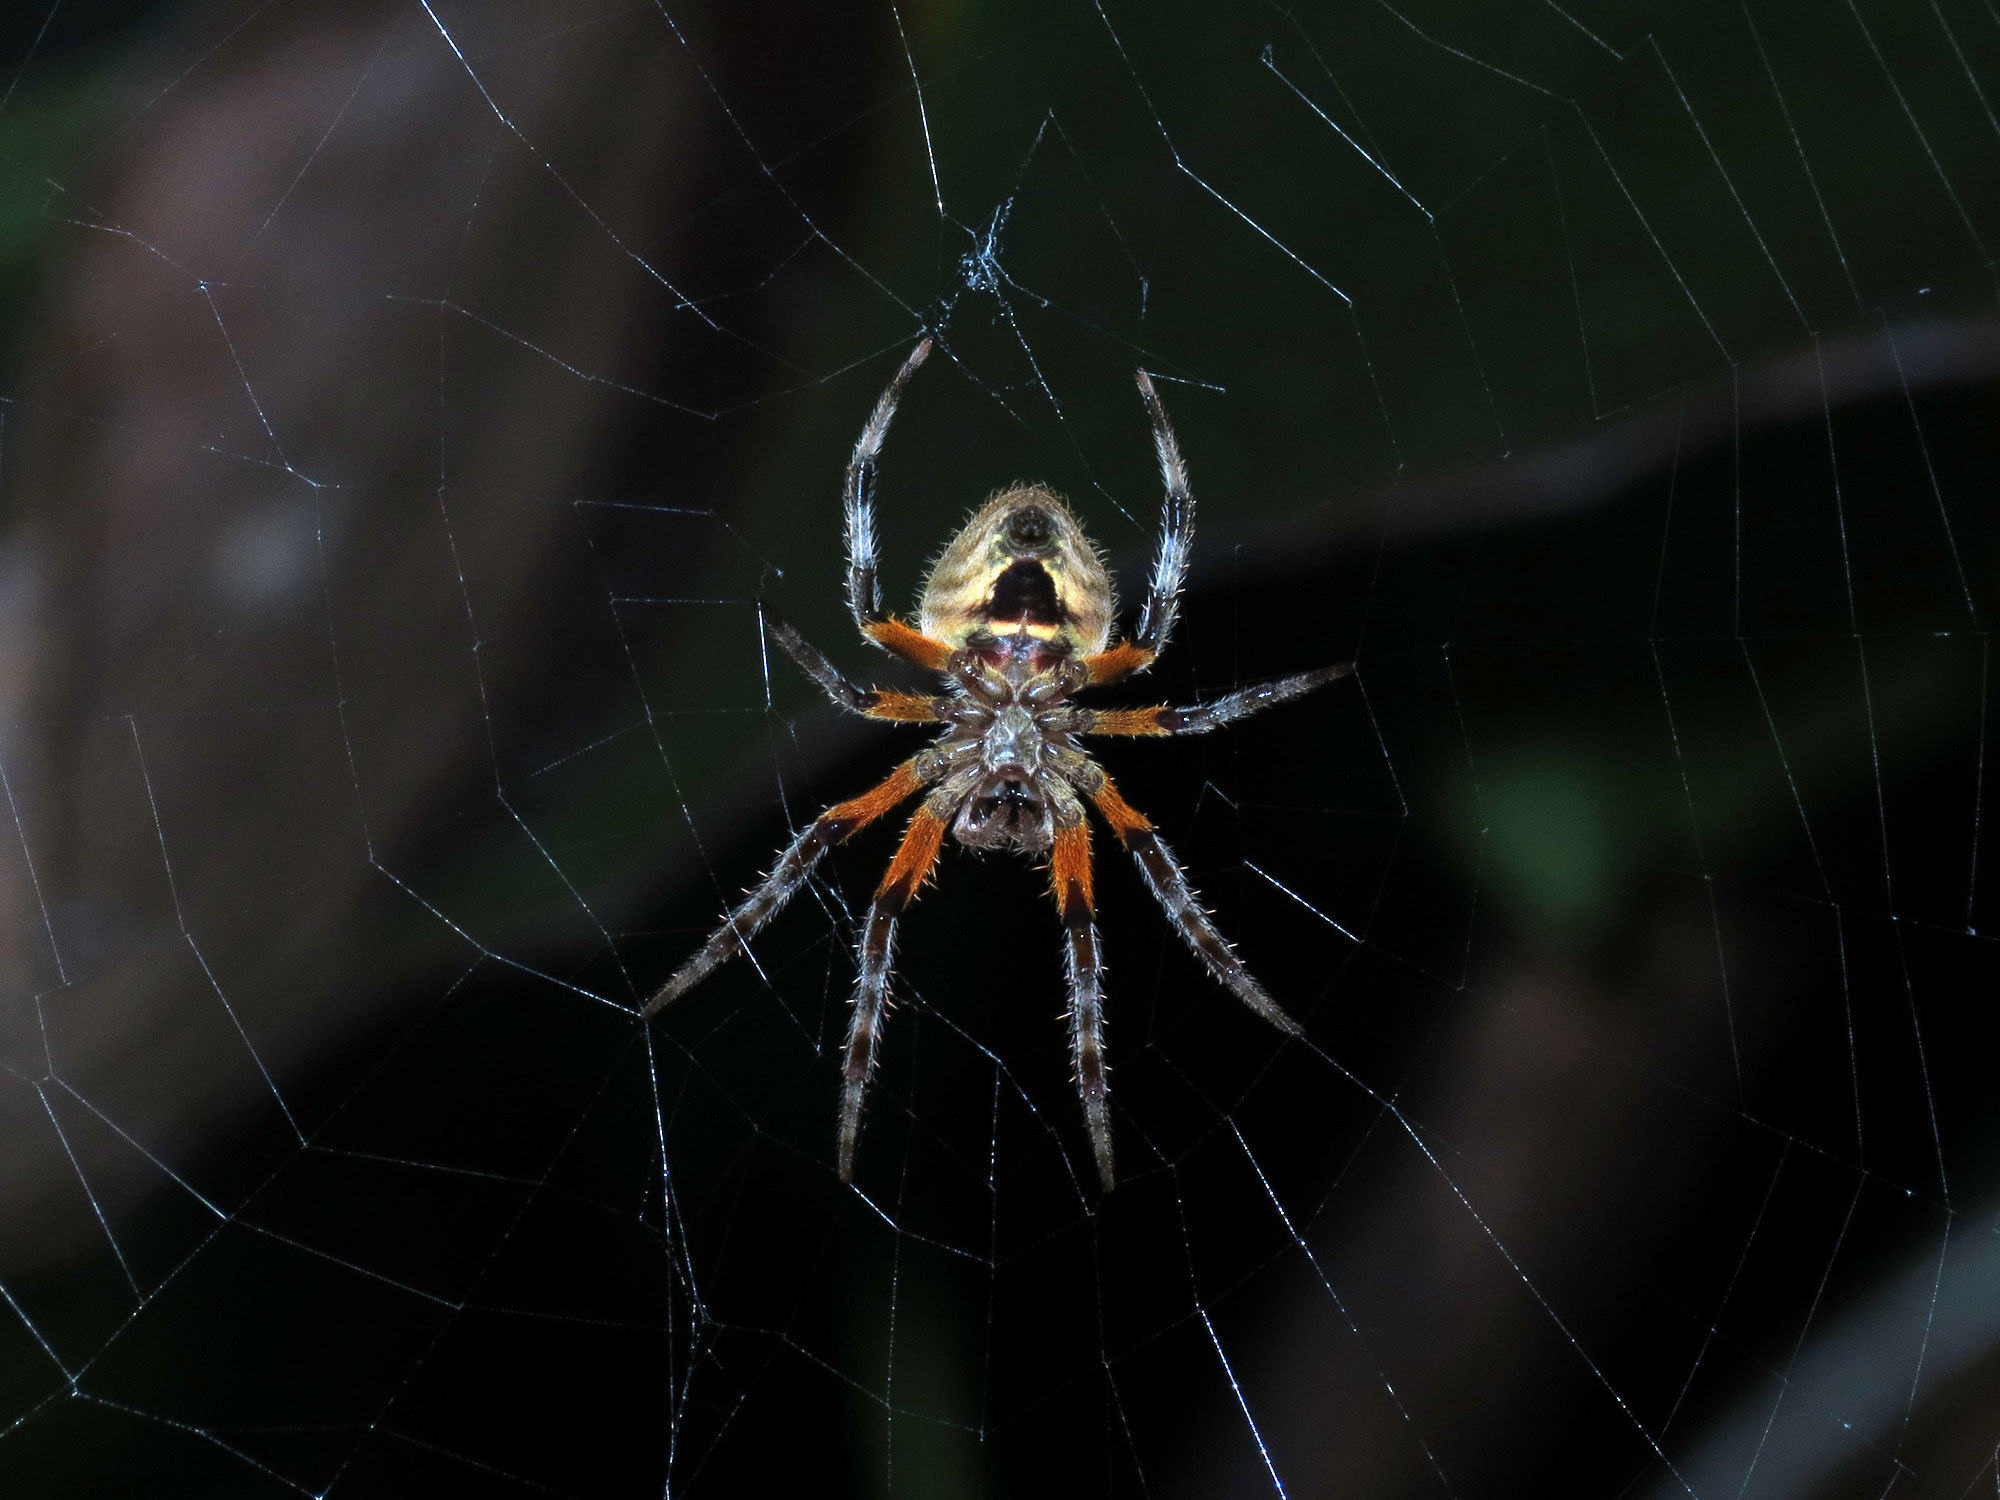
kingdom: Animalia
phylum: Arthropoda
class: Arachnida
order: Araneae
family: Araneidae
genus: Eriophora
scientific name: Eriophora fuliginea
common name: Orb weavers
